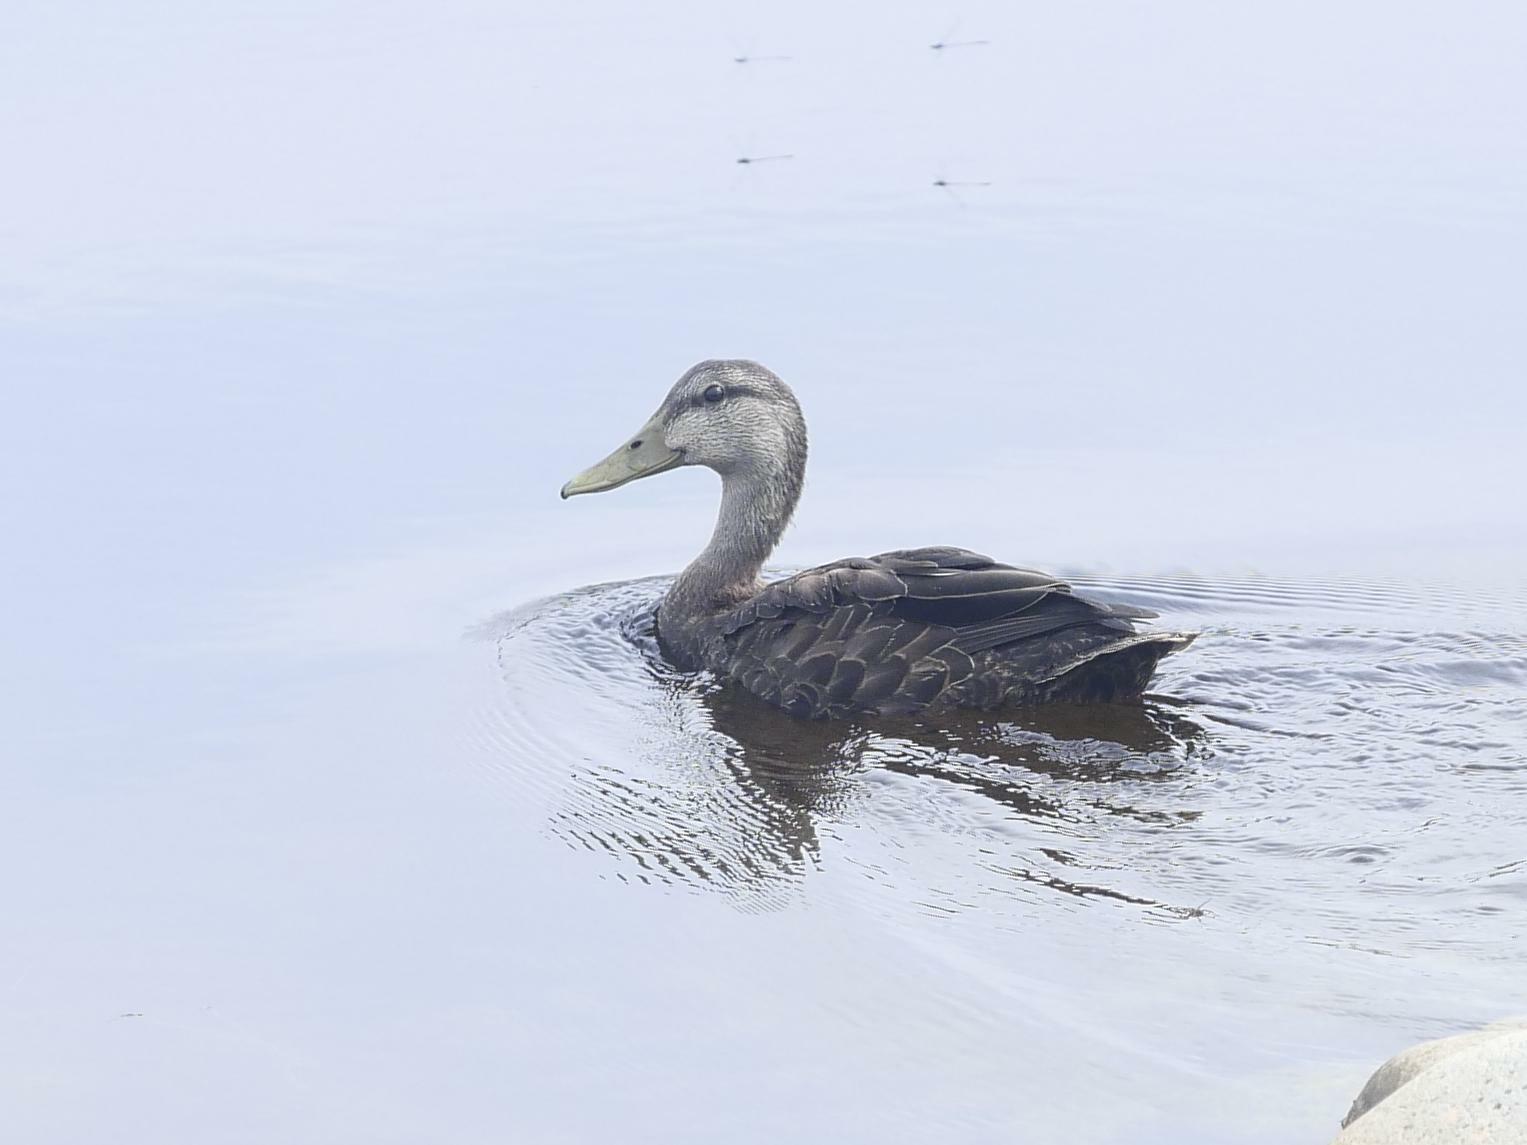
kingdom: Animalia
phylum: Chordata
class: Aves
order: Anseriformes
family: Anatidae
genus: Anas
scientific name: Anas rubripes
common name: American black duck
